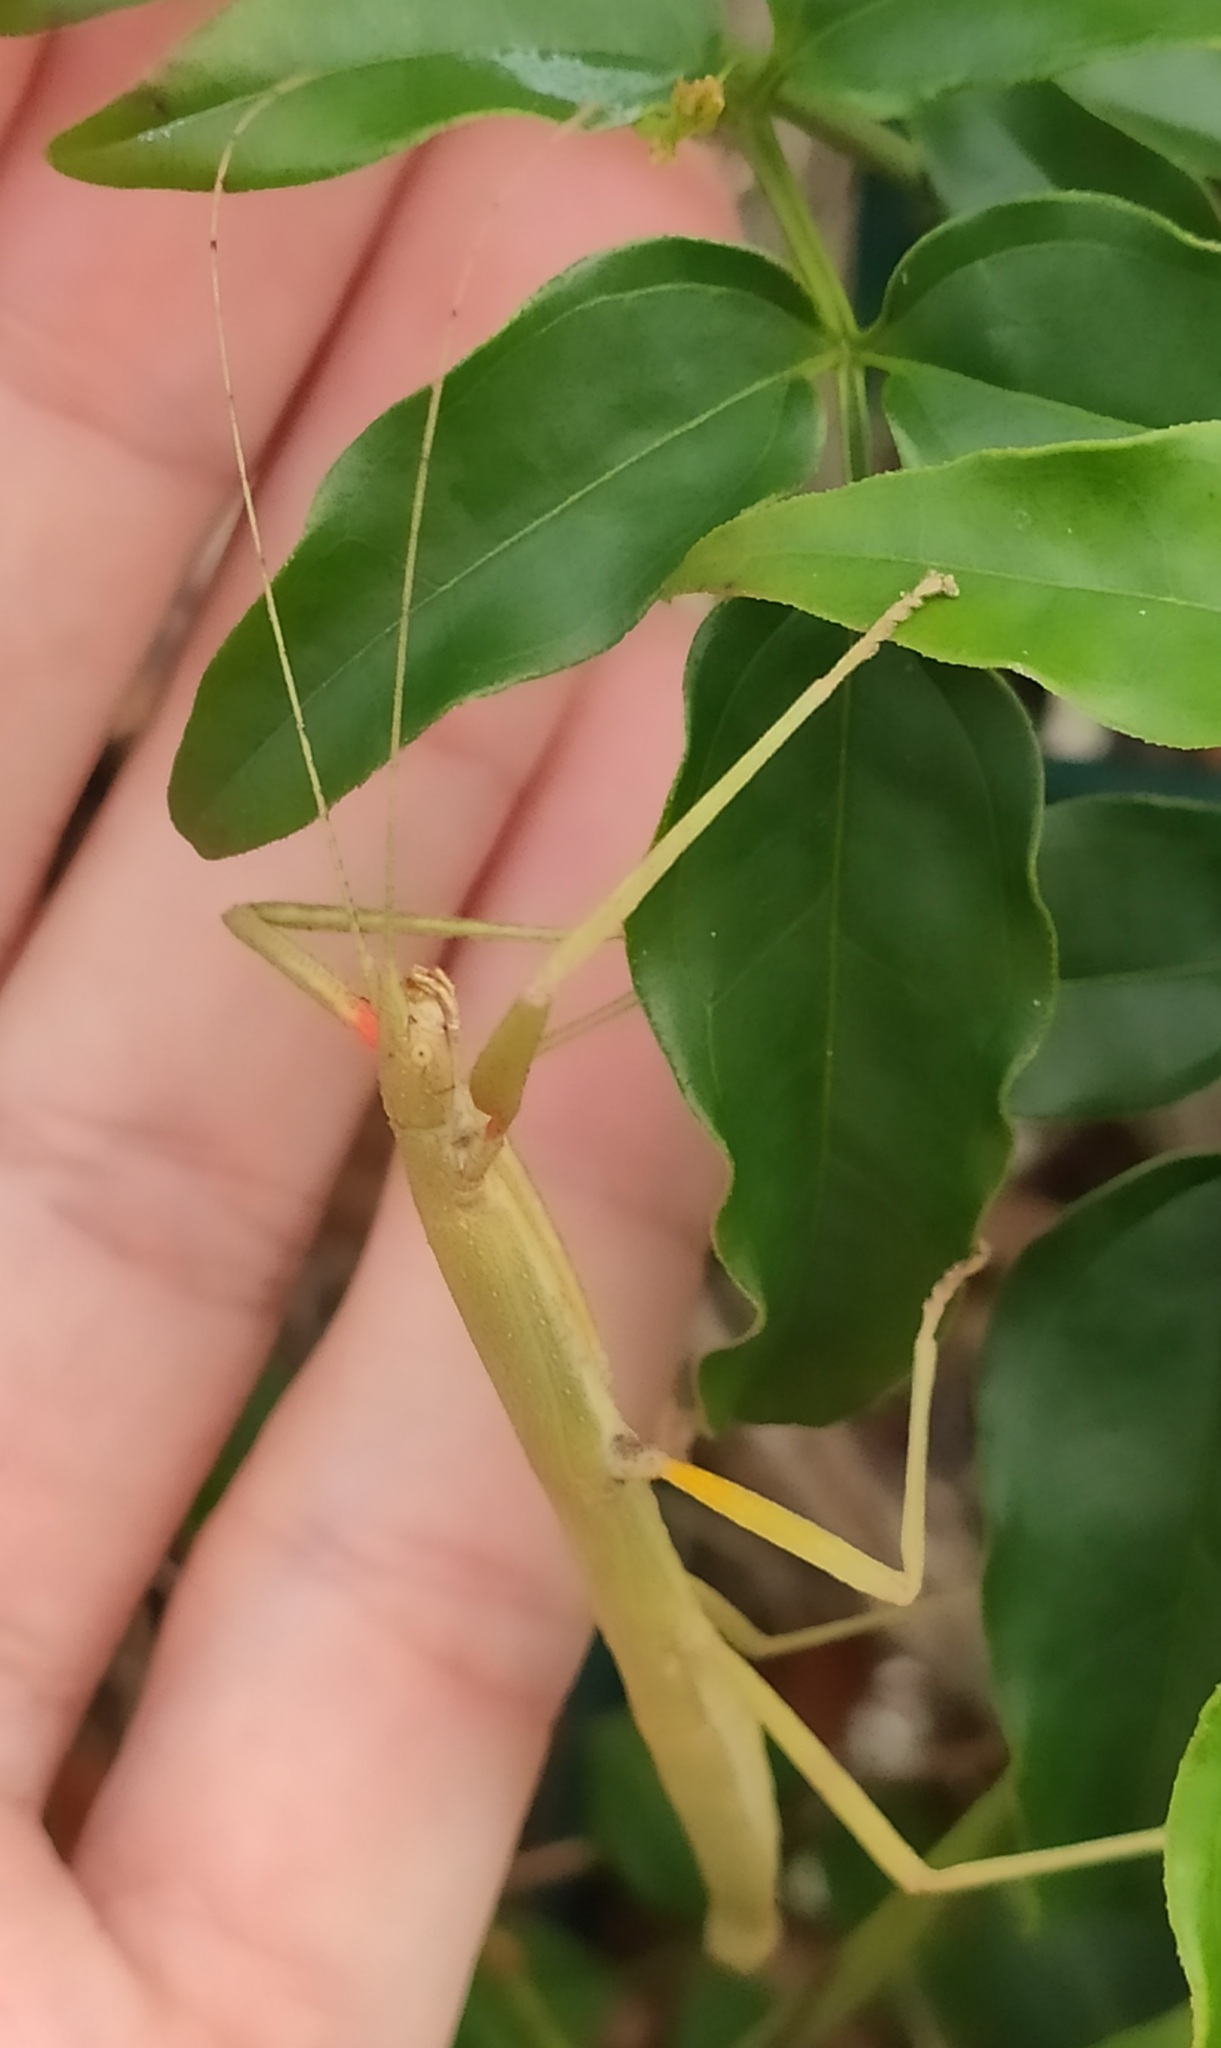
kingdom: Animalia
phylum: Arthropoda
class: Insecta
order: Phasmida
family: Lonchodidae
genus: Carausius
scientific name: Carausius morosus
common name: Indian stick insect
